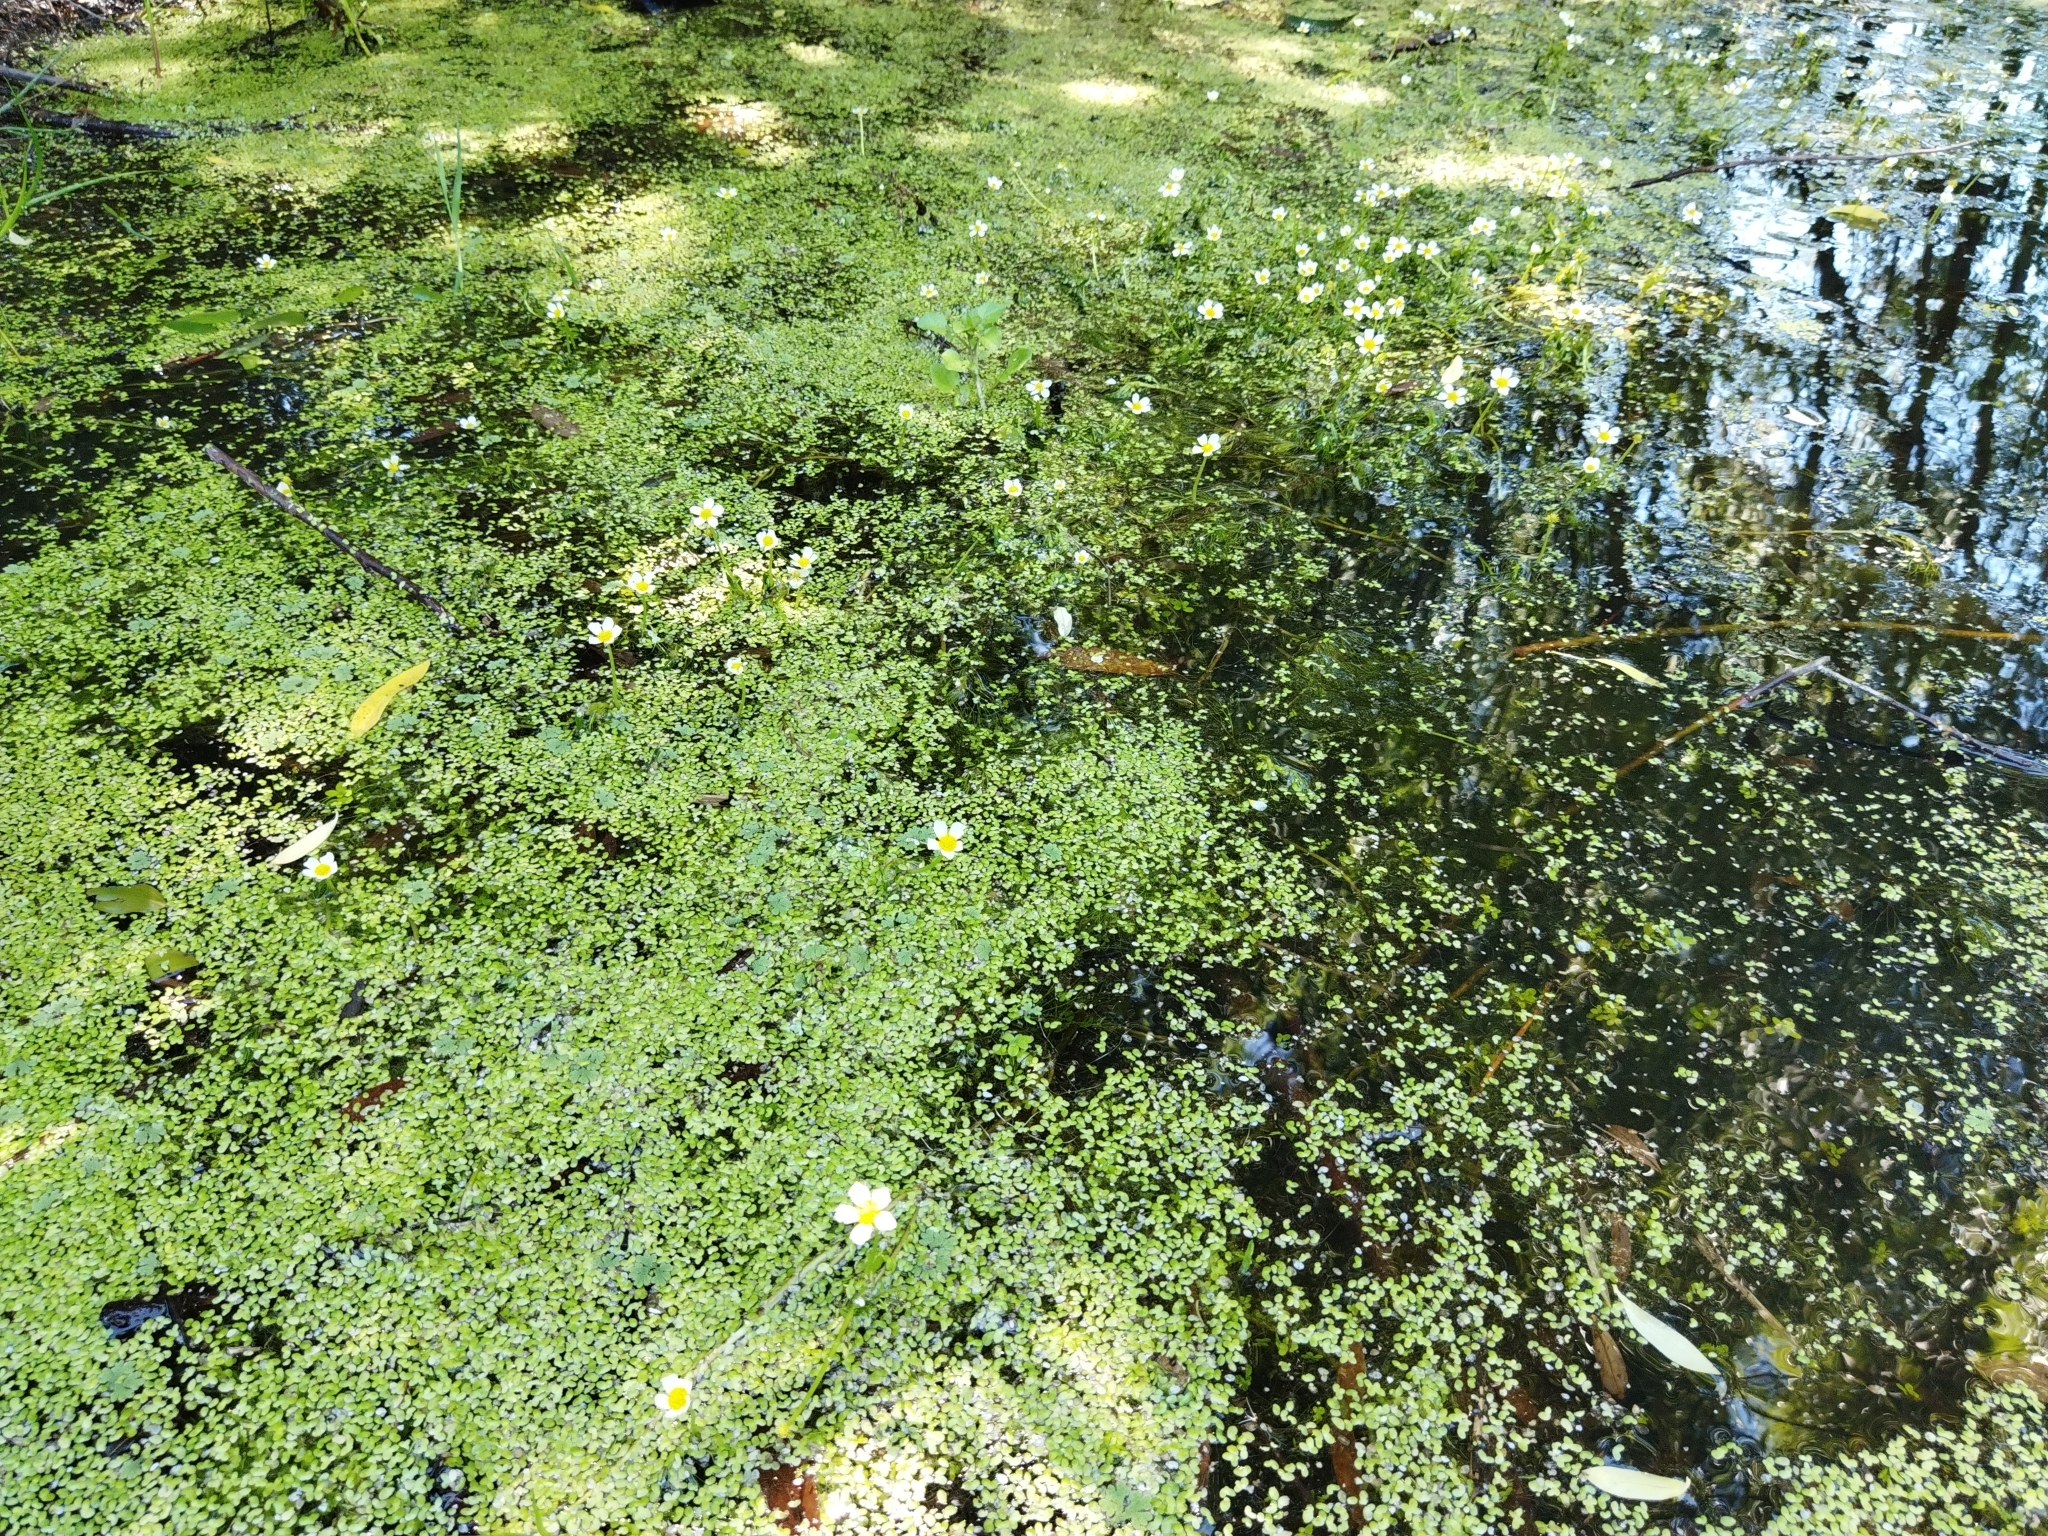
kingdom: Plantae
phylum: Tracheophyta
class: Magnoliopsida
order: Ranunculales
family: Ranunculaceae
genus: Ranunculus
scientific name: Ranunculus trichophyllus
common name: Thread-leaved water-crowfoot
